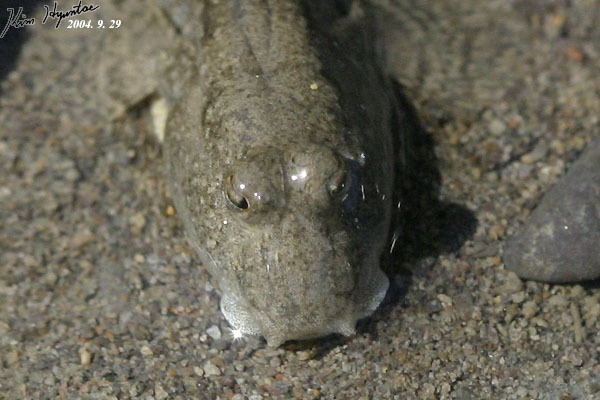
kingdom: Animalia
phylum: Chordata
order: Perciformes
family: Gobiidae
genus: Periophthalmus
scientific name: Periophthalmus modestus
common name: Black goby
